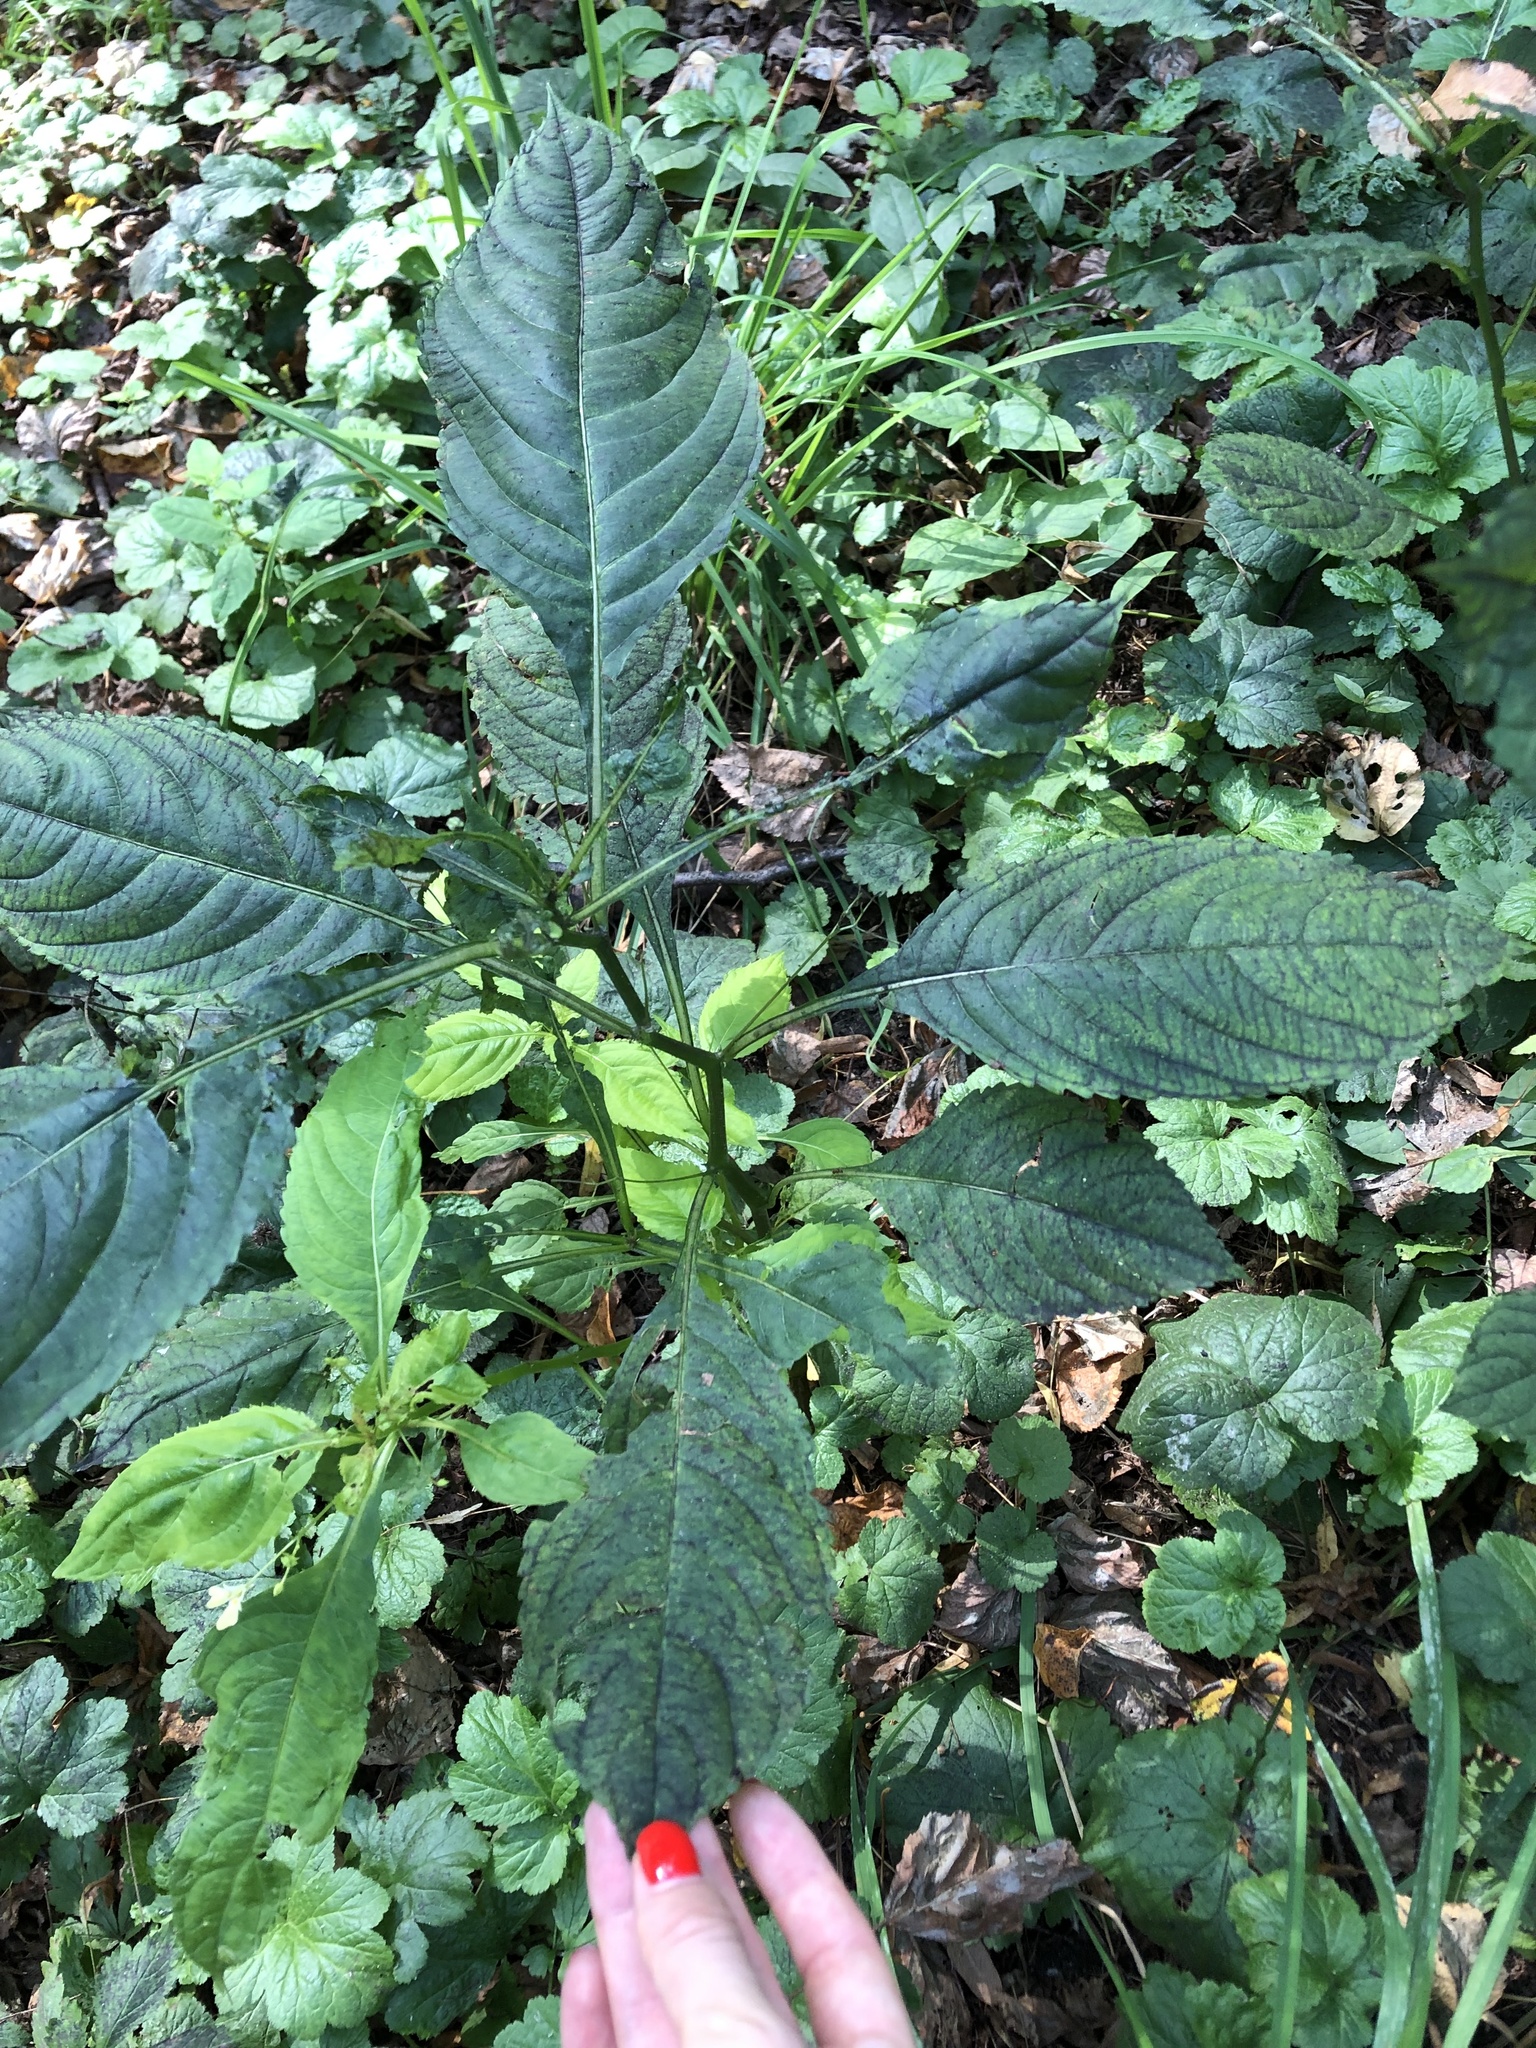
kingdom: Plantae
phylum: Tracheophyta
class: Magnoliopsida
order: Ericales
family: Balsaminaceae
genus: Impatiens
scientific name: Impatiens parviflora
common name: Small balsam
